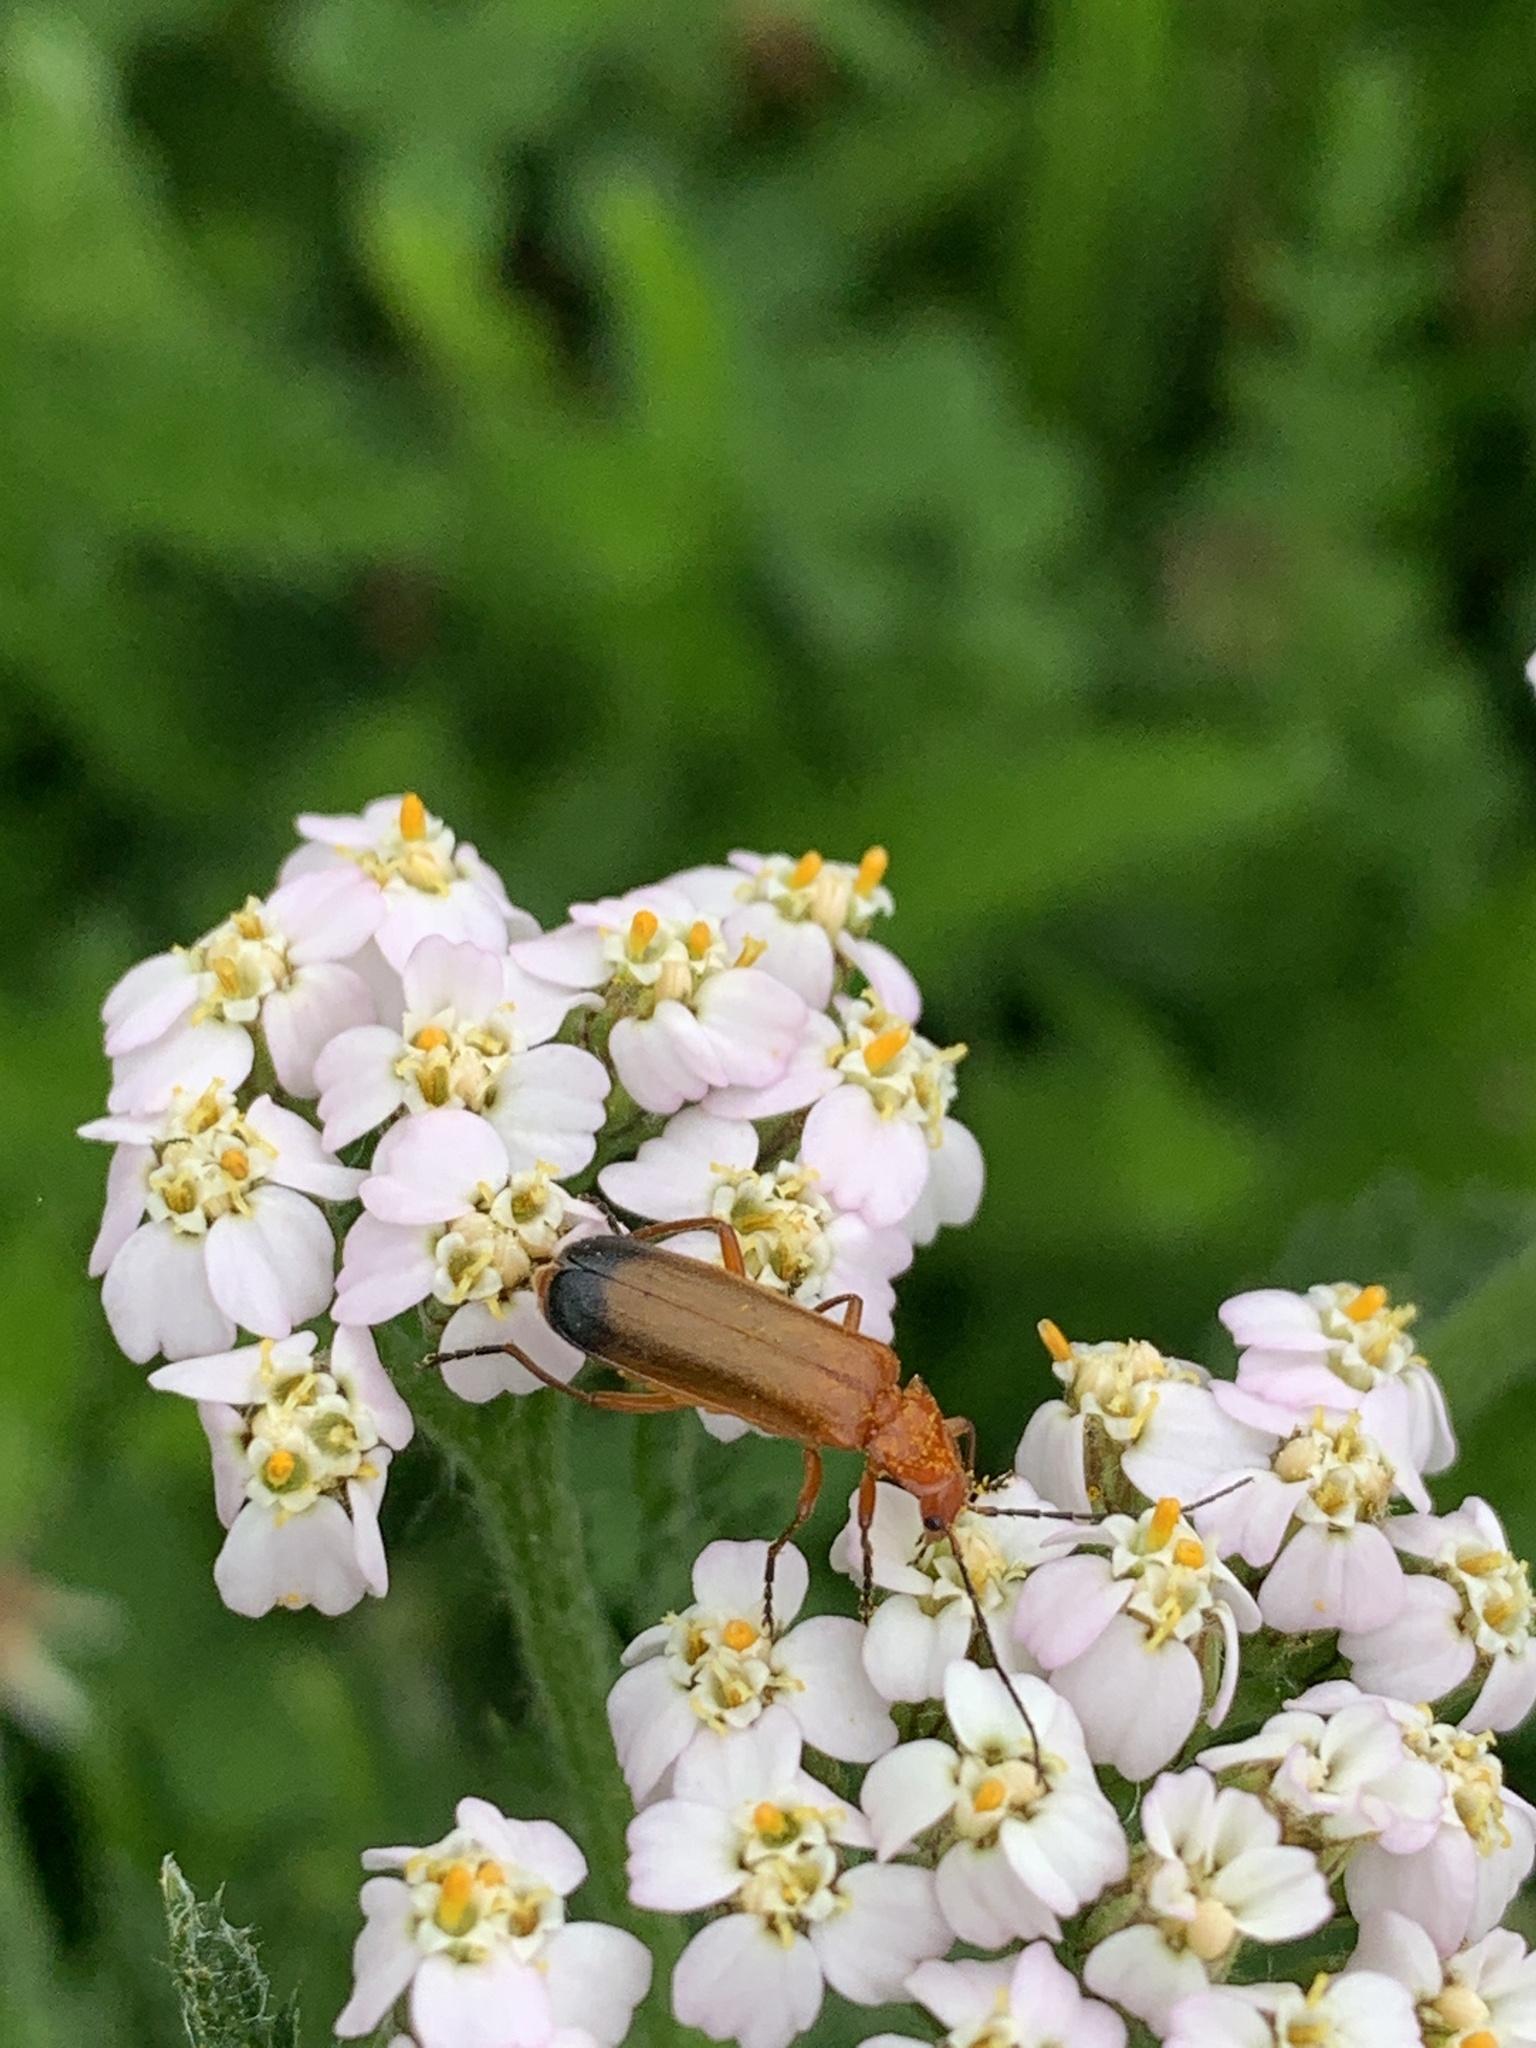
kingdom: Animalia
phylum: Arthropoda
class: Insecta
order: Coleoptera
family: Cantharidae
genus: Rhagonycha
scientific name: Rhagonycha fulva
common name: Common red soldier beetle
